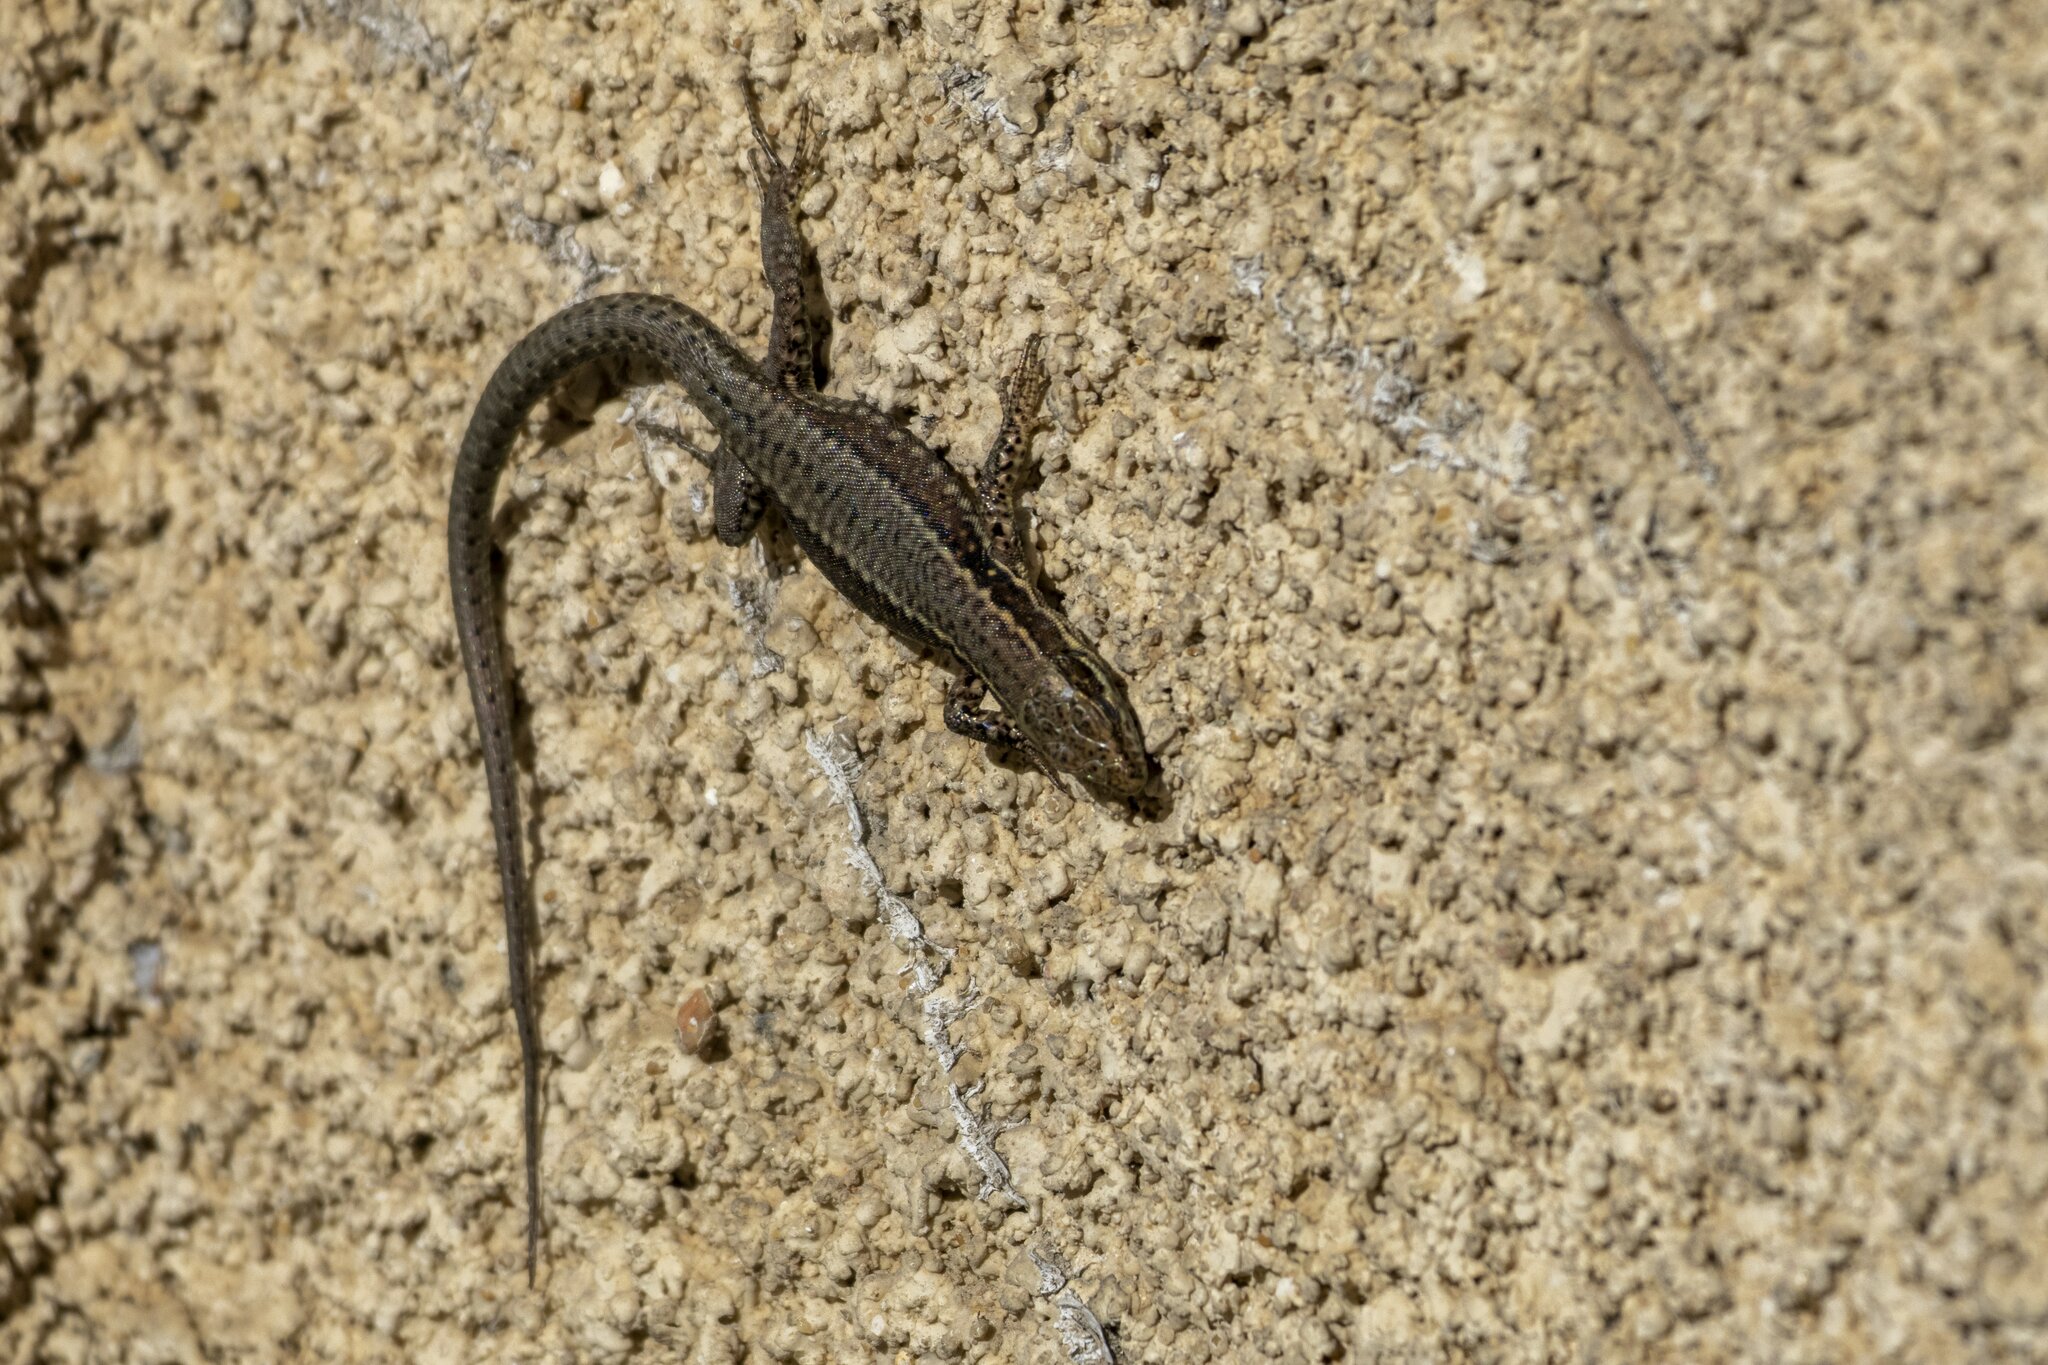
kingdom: Animalia
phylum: Chordata
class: Squamata
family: Lacertidae
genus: Podarcis
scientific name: Podarcis muralis
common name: Common wall lizard
